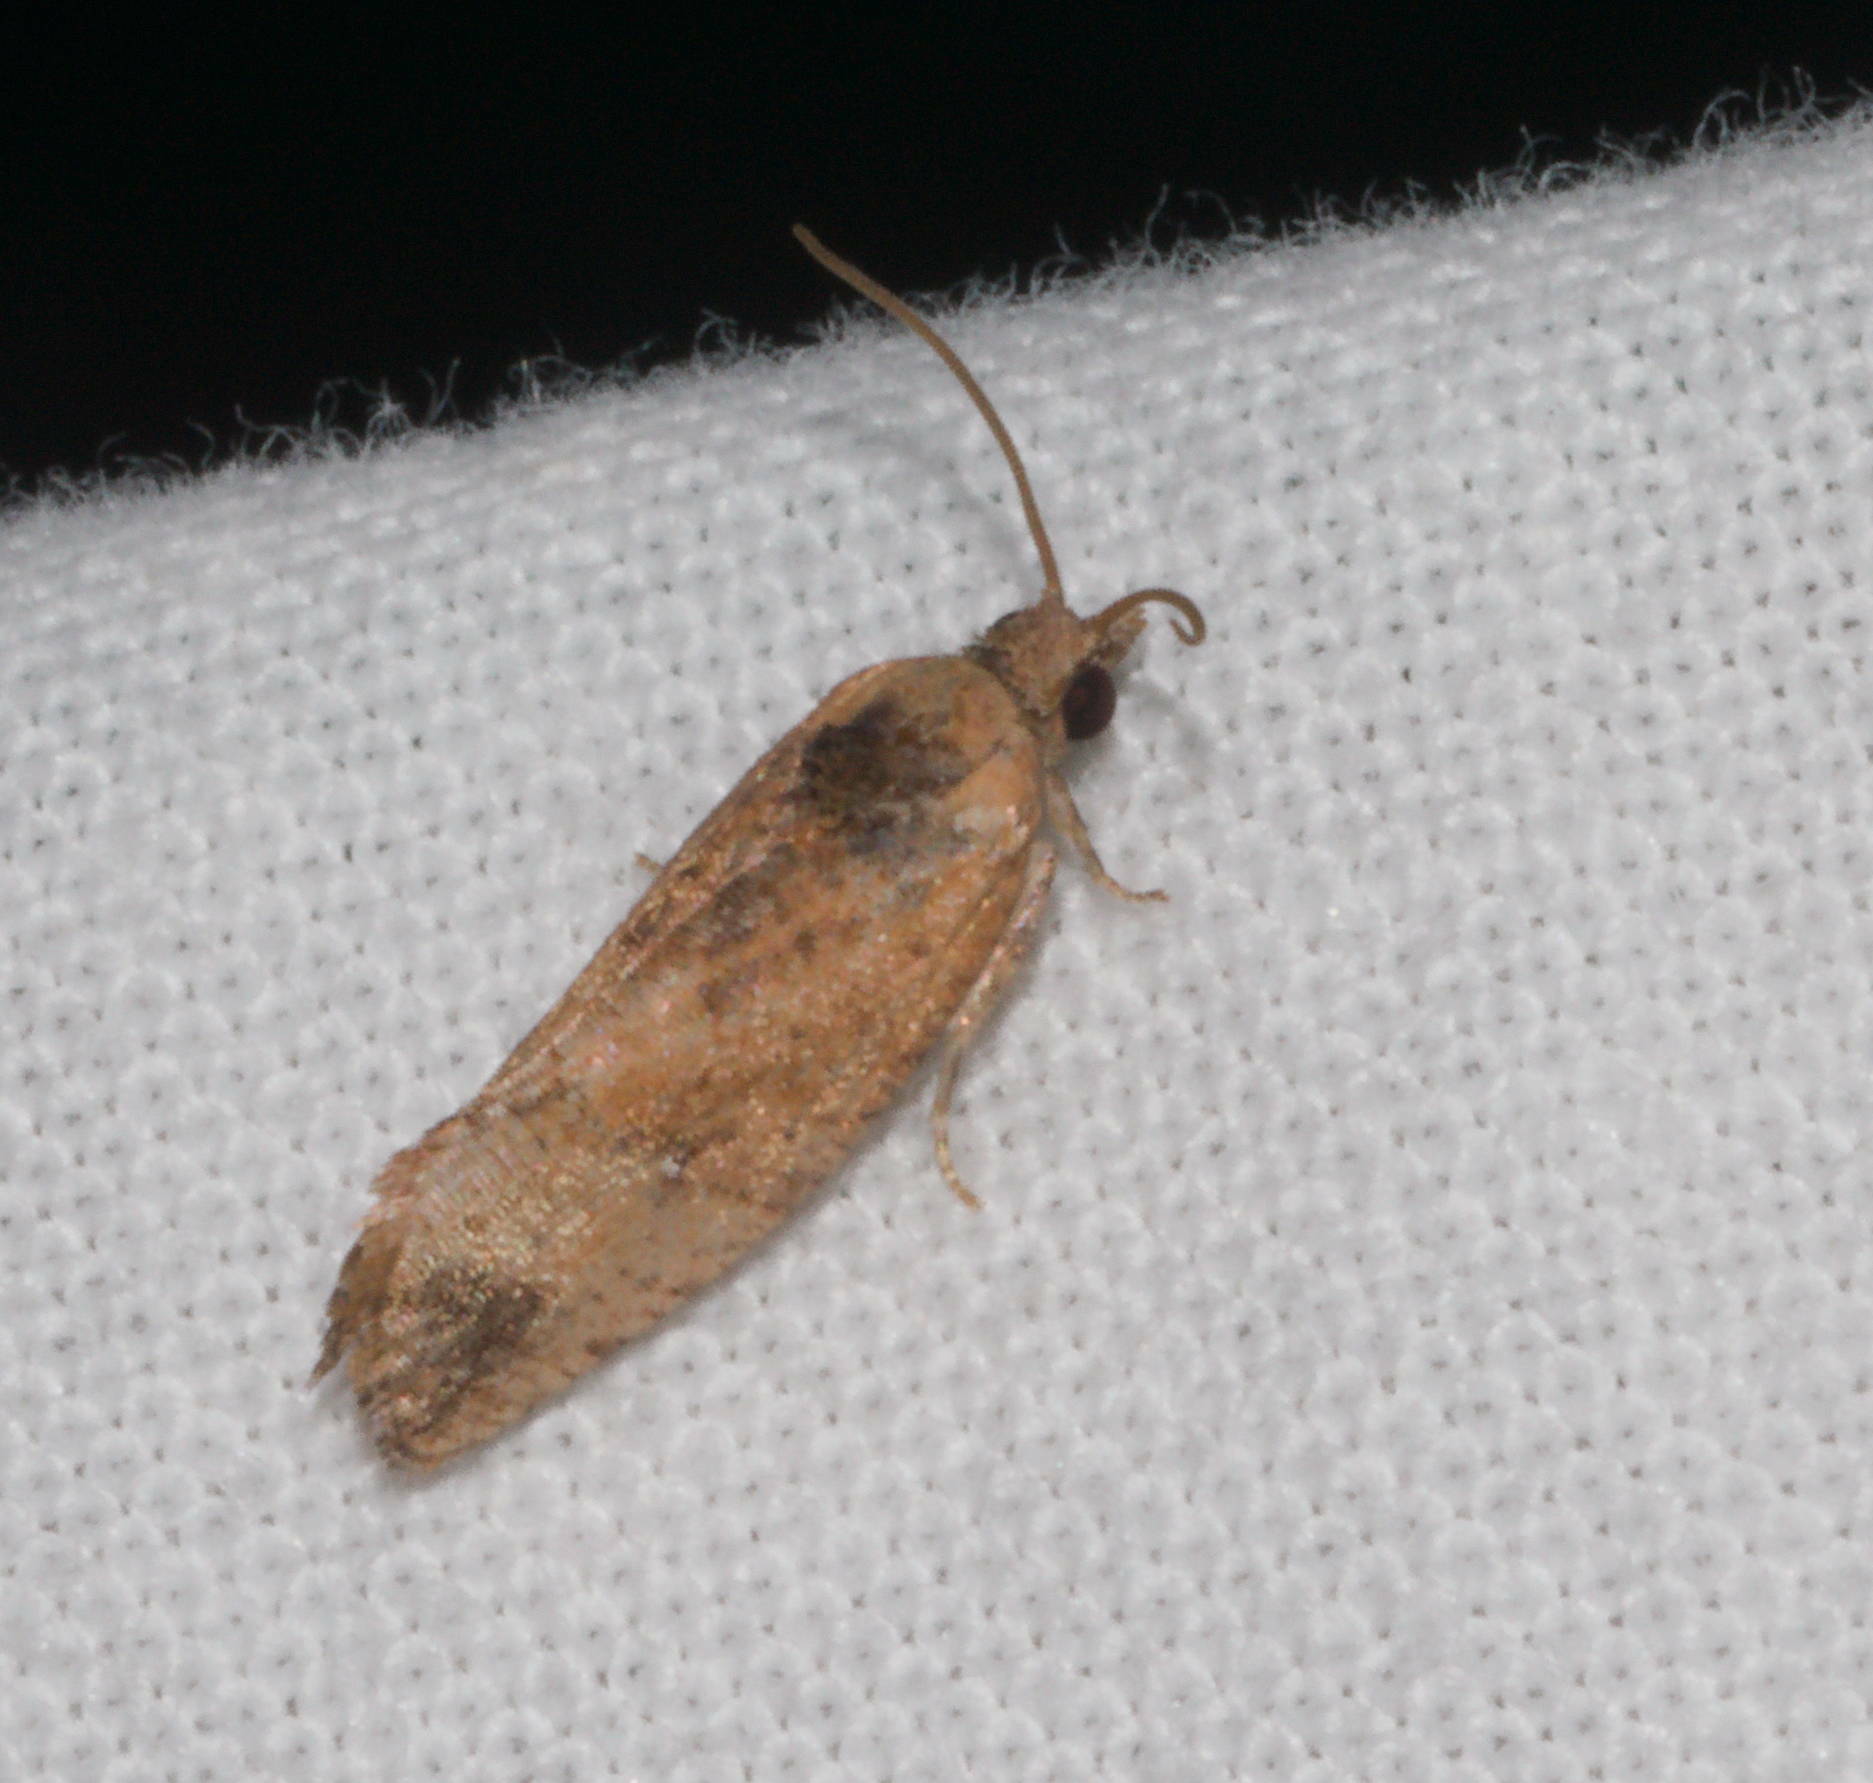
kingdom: Animalia
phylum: Arthropoda
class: Insecta
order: Lepidoptera
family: Tortricidae
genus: Cryptophlebia
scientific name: Cryptophlebia illepida
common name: Moth
